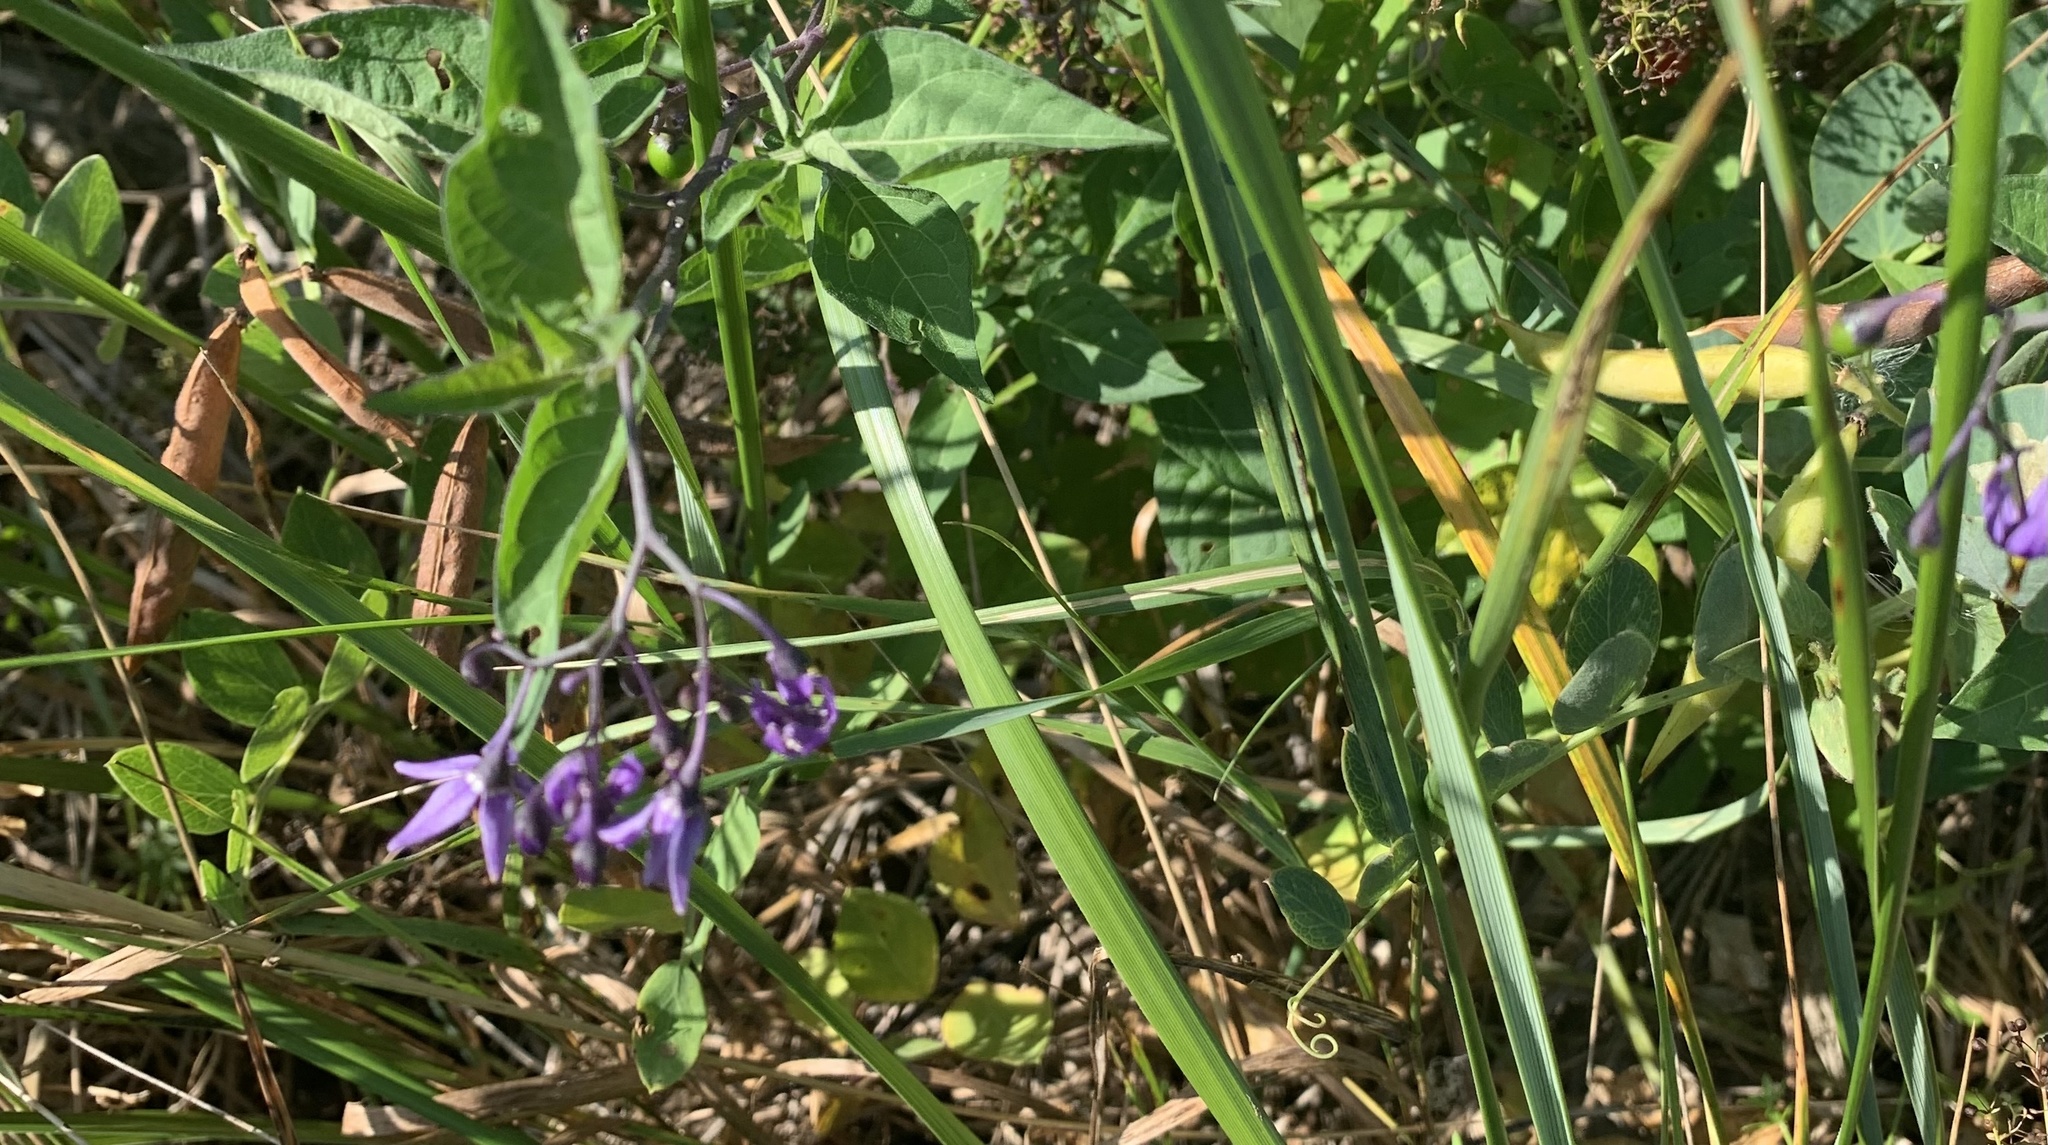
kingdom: Plantae
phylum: Tracheophyta
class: Magnoliopsida
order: Solanales
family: Solanaceae
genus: Solanum
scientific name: Solanum dulcamara
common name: Climbing nightshade
